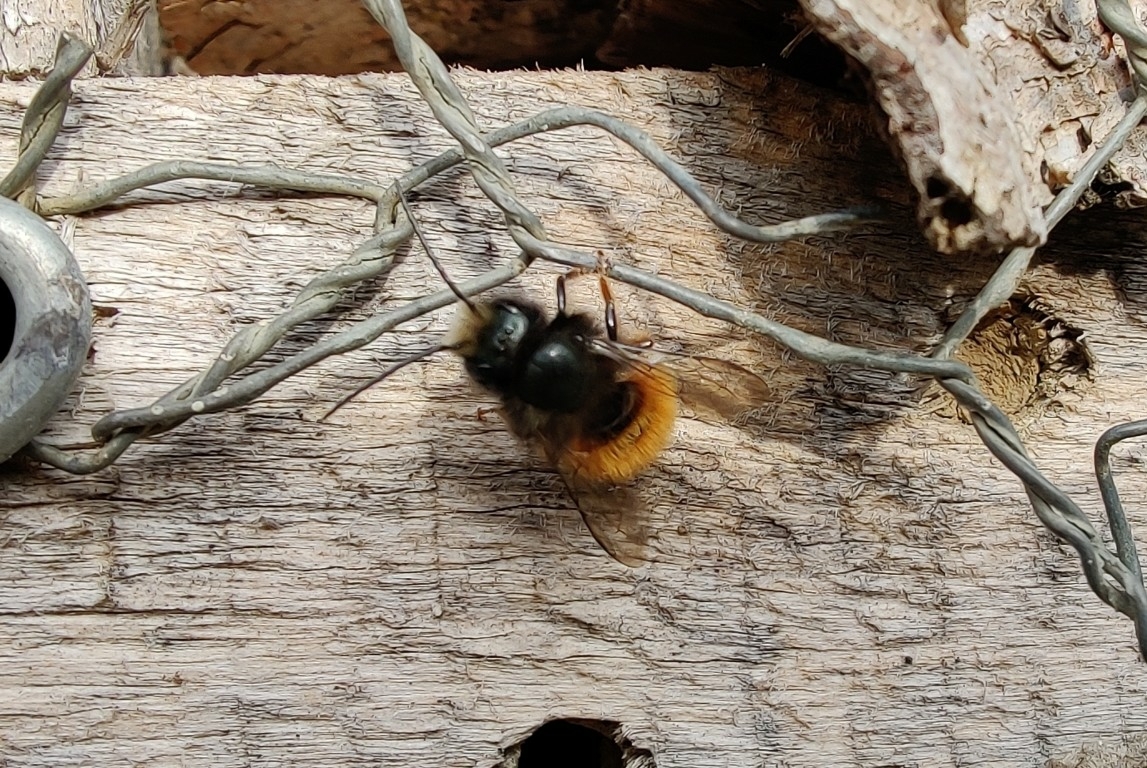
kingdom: Animalia
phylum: Arthropoda
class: Insecta
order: Hymenoptera
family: Megachilidae
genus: Osmia
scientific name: Osmia cornuta
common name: Mason bee
